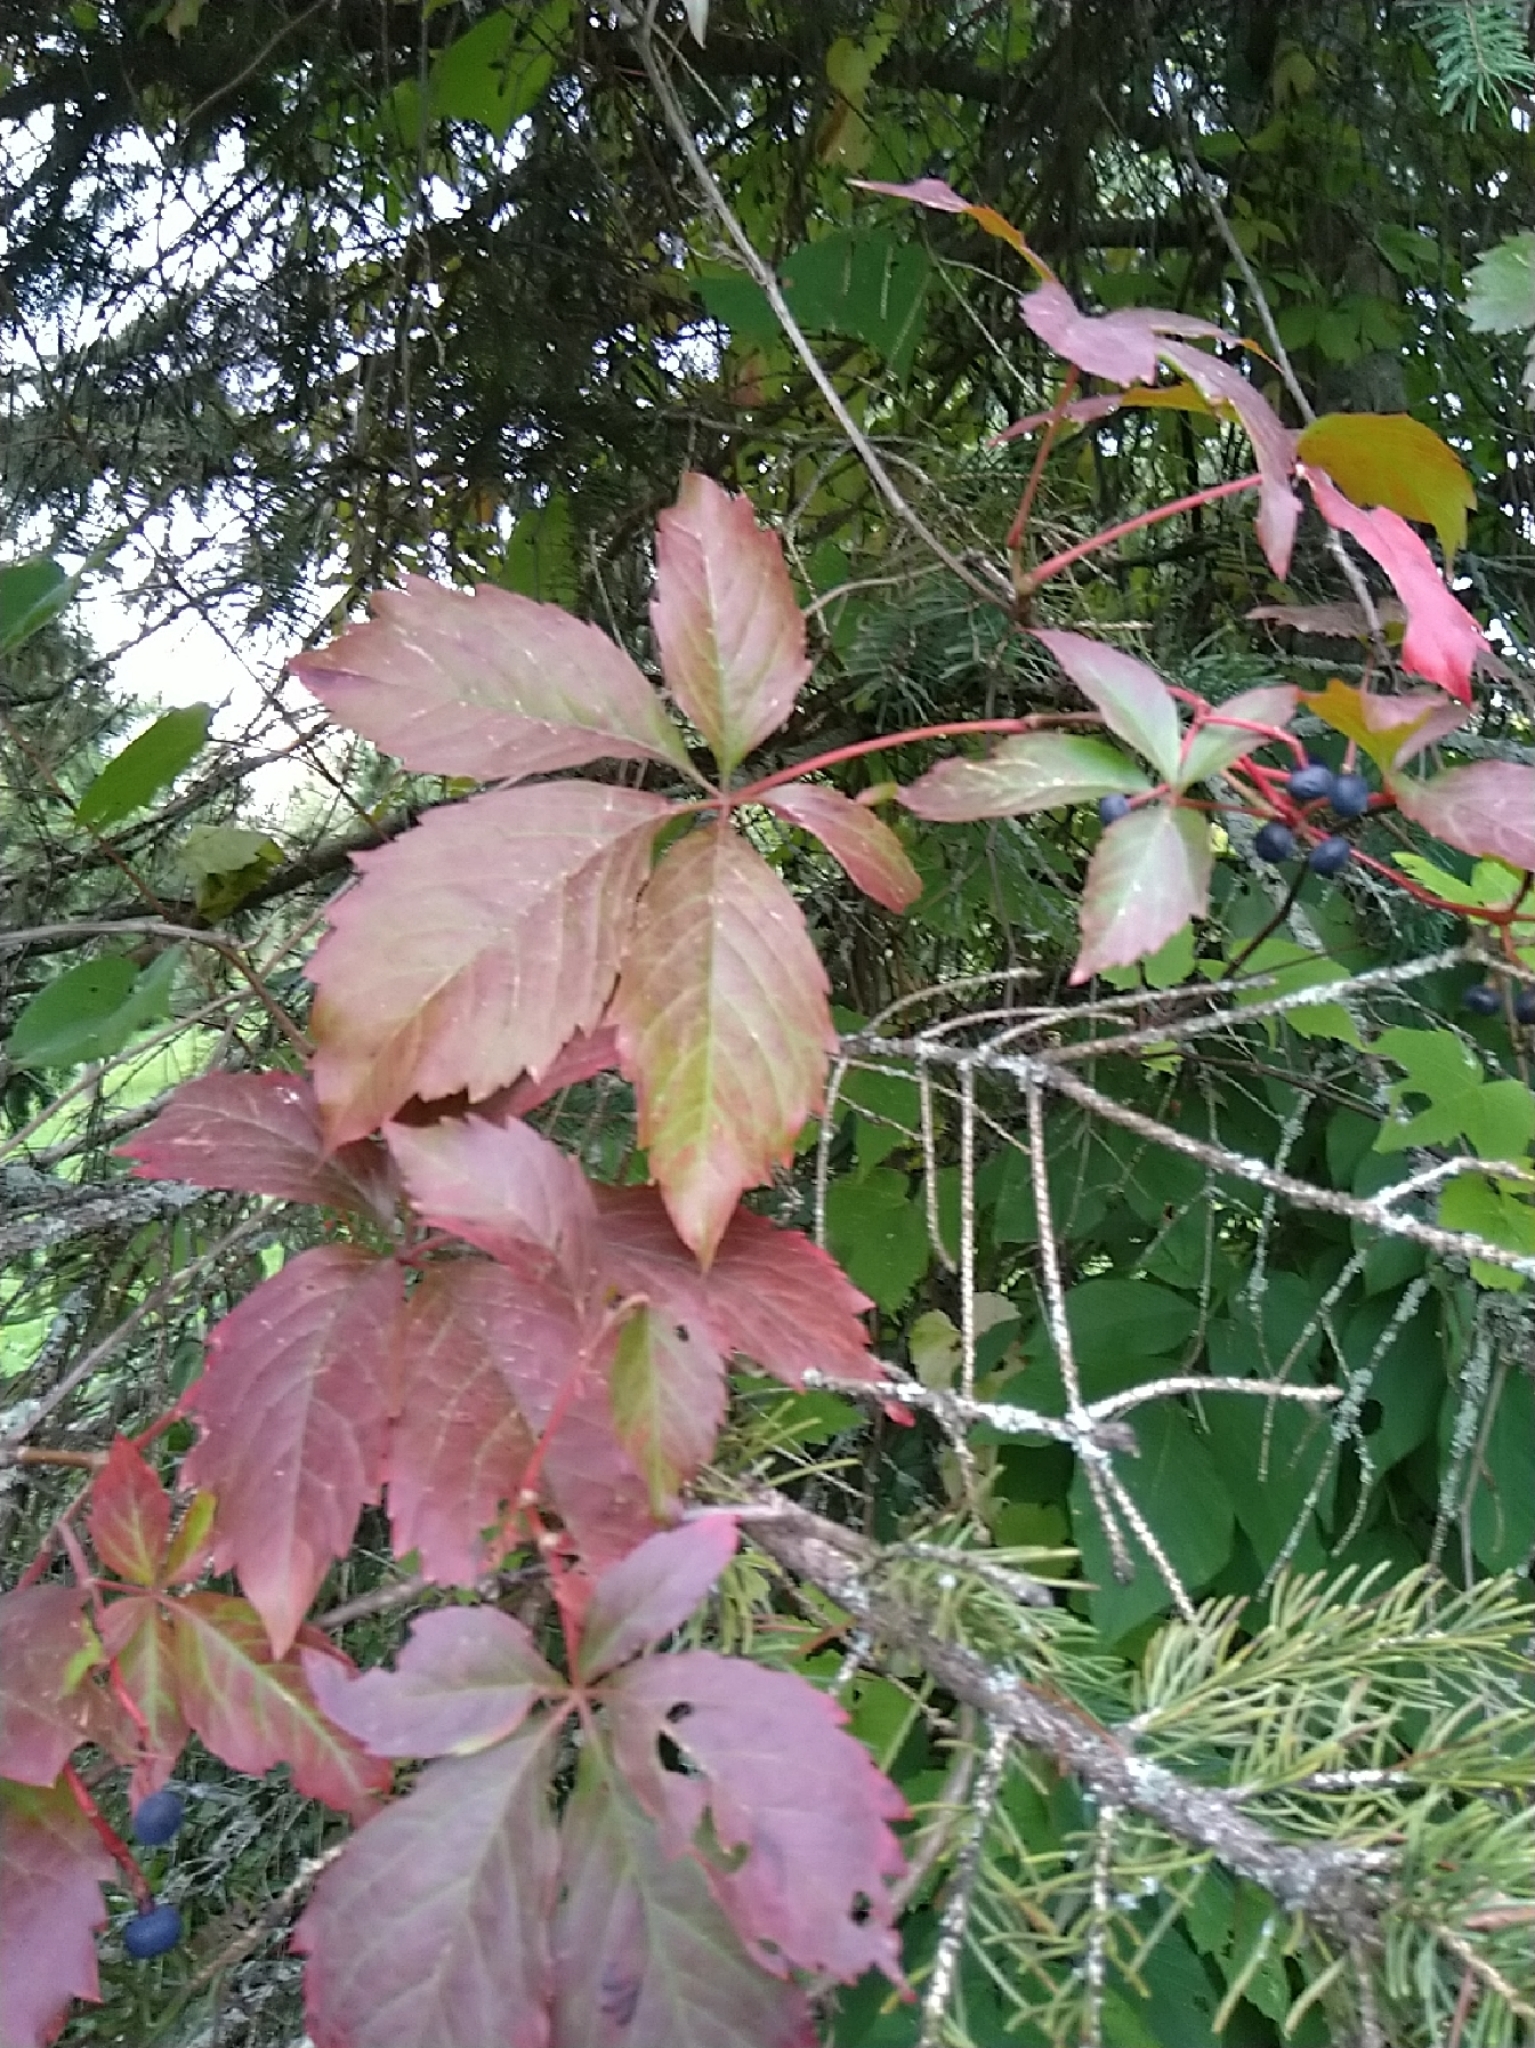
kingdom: Plantae
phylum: Tracheophyta
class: Magnoliopsida
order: Vitales
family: Vitaceae
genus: Parthenocissus
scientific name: Parthenocissus quinquefolia
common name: Virginia-creeper
